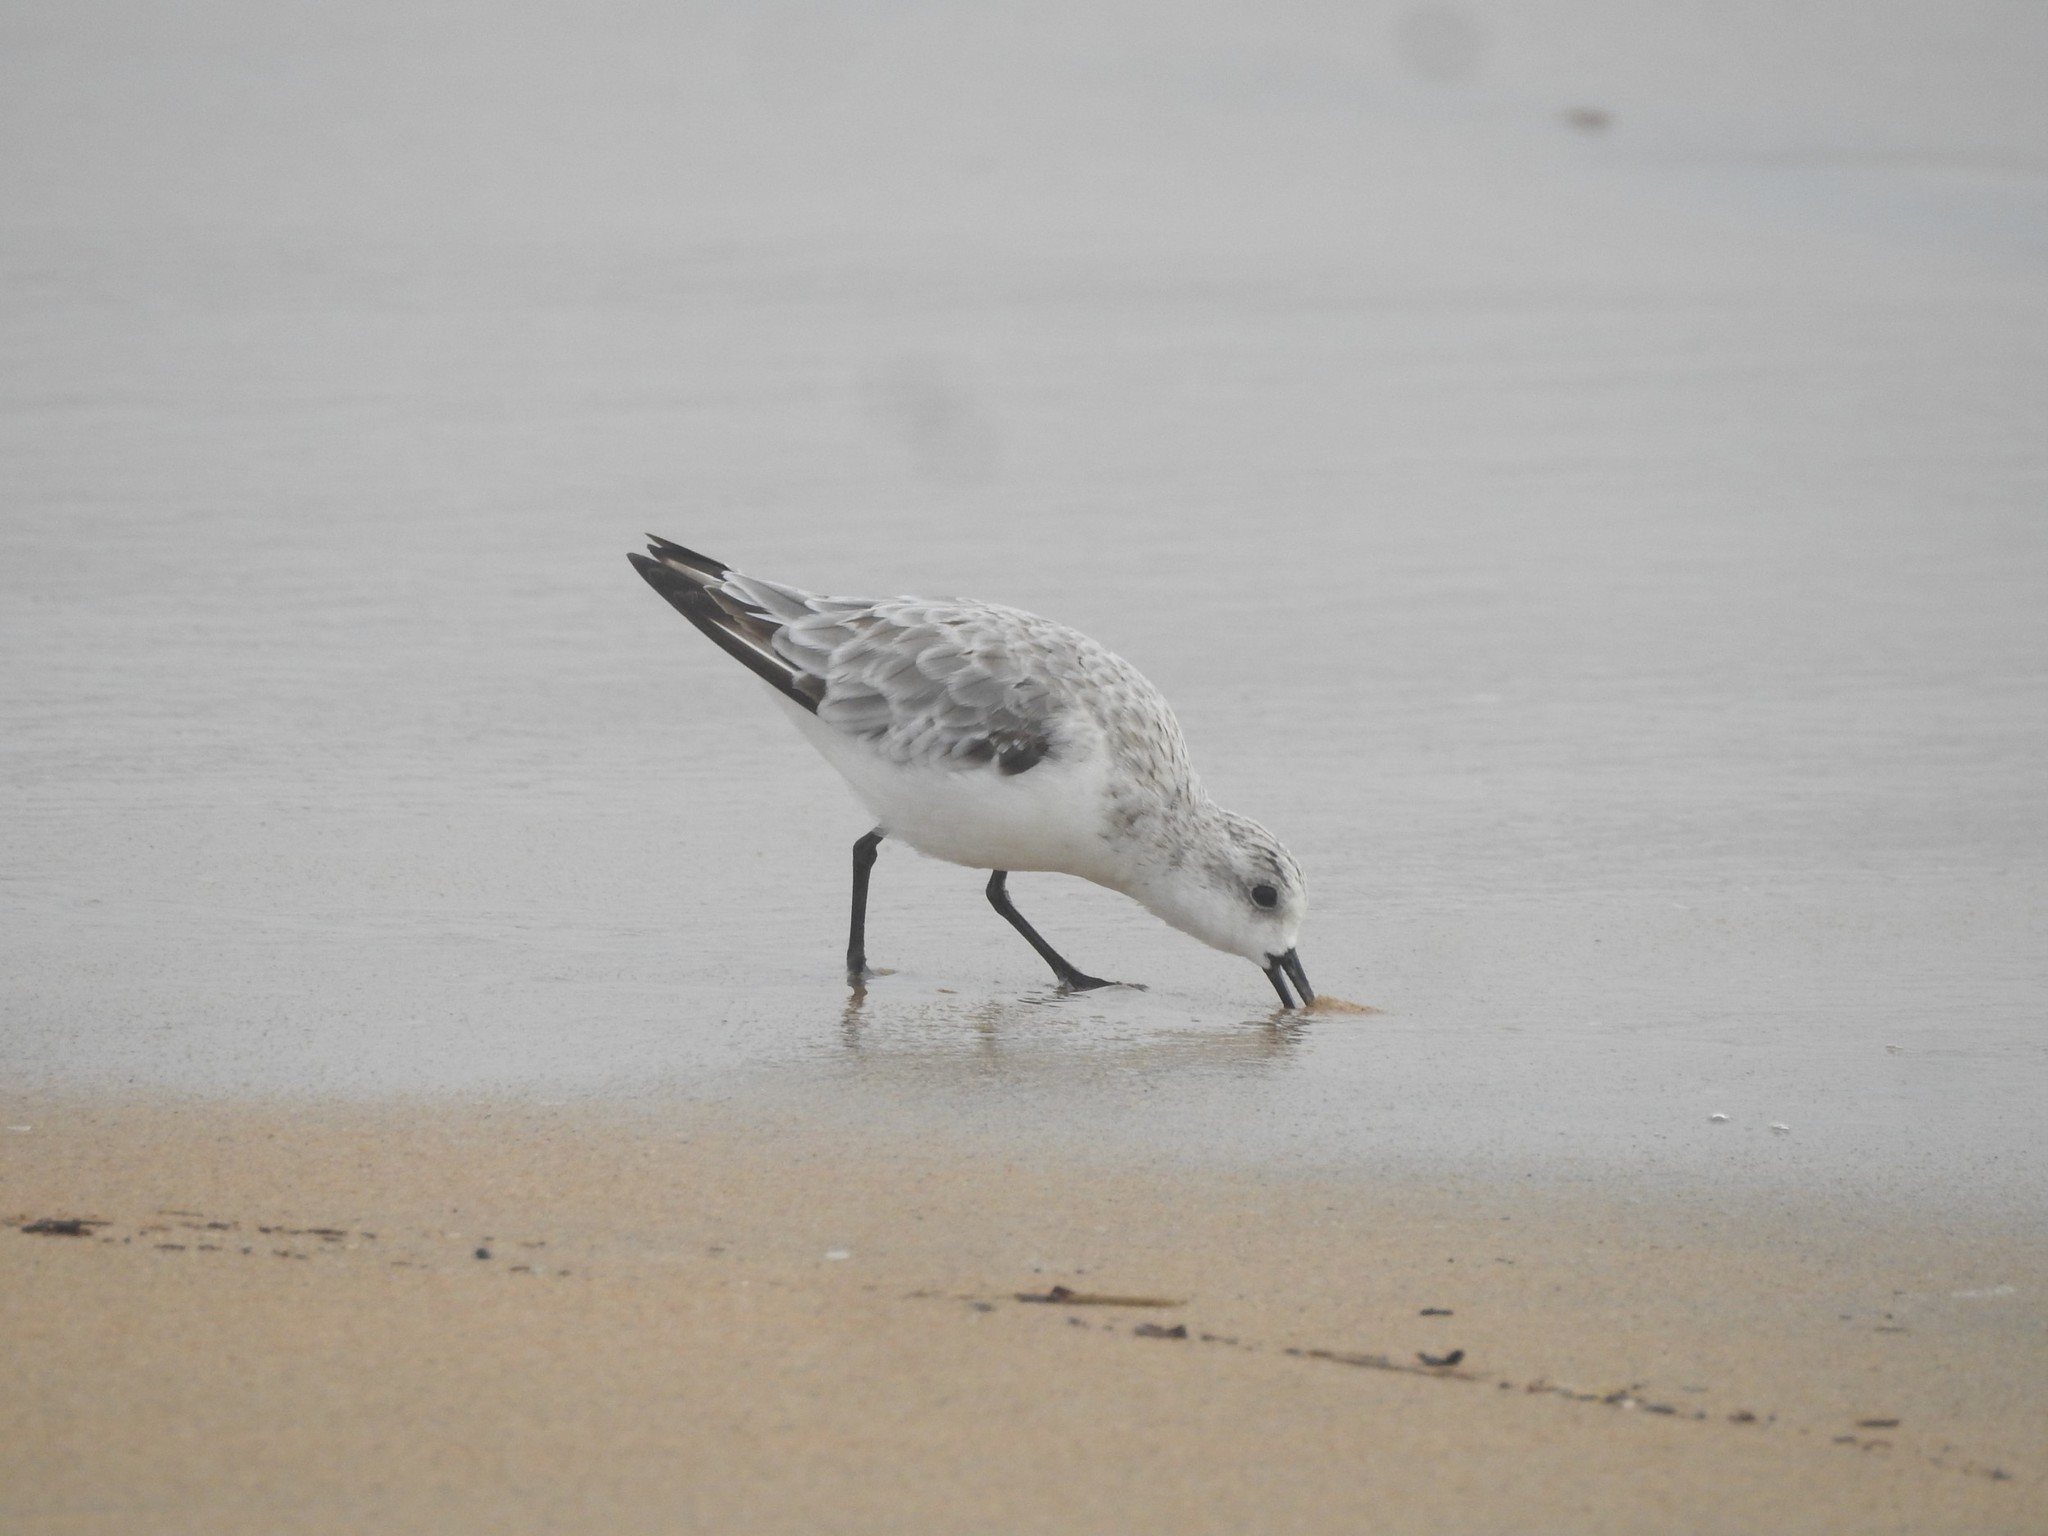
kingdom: Animalia
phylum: Chordata
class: Aves
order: Charadriiformes
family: Scolopacidae
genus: Calidris
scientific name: Calidris alba
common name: Sanderling
